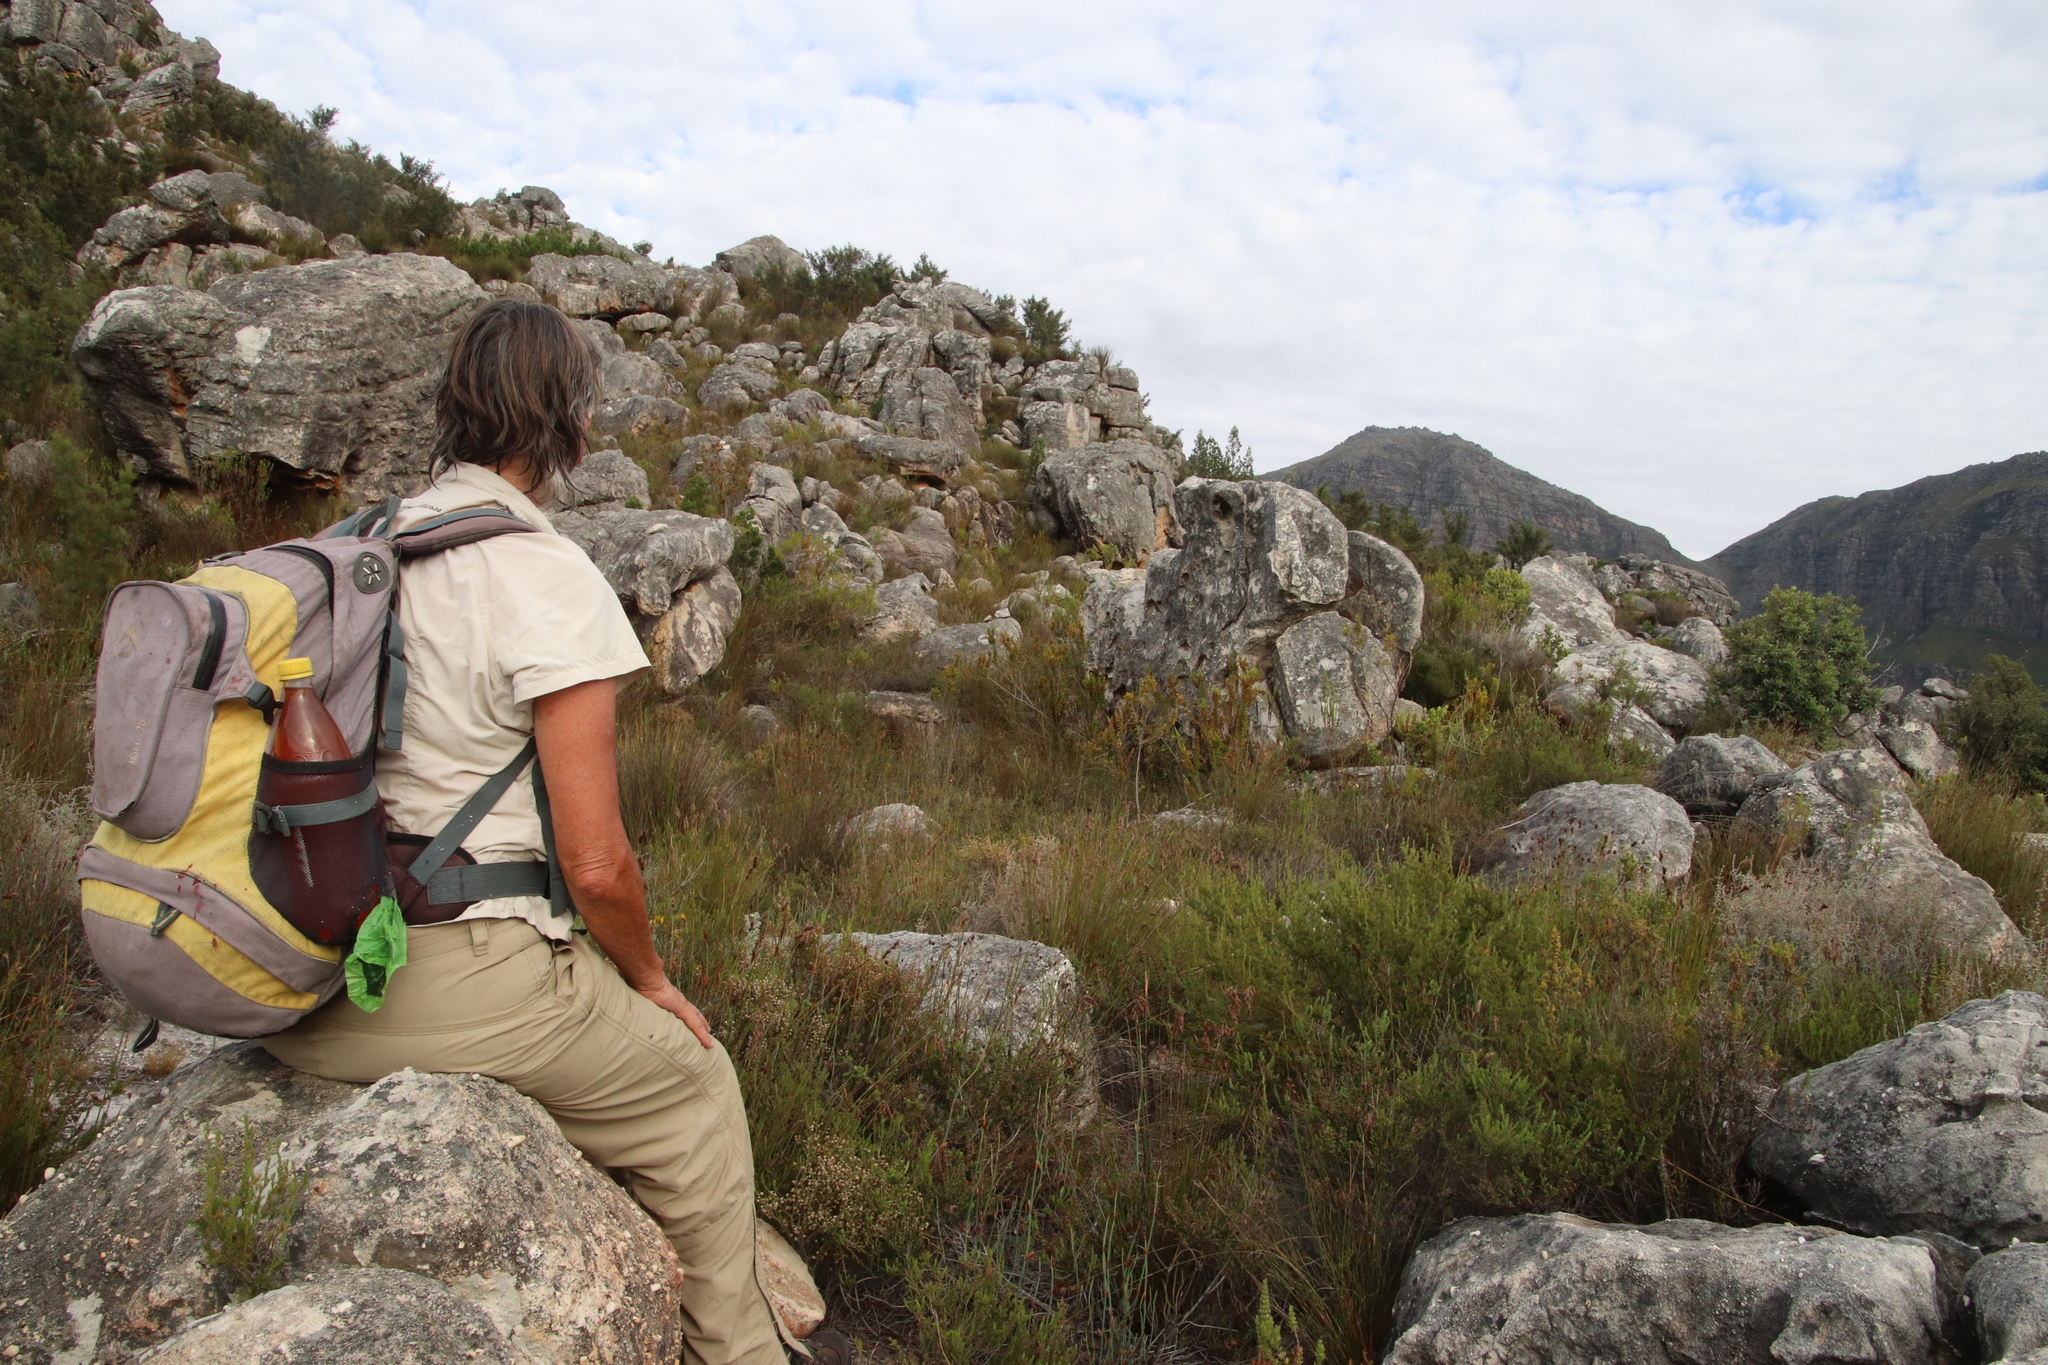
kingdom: Plantae
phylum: Tracheophyta
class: Magnoliopsida
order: Ericales
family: Ericaceae
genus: Erica
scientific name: Erica blandfordia
